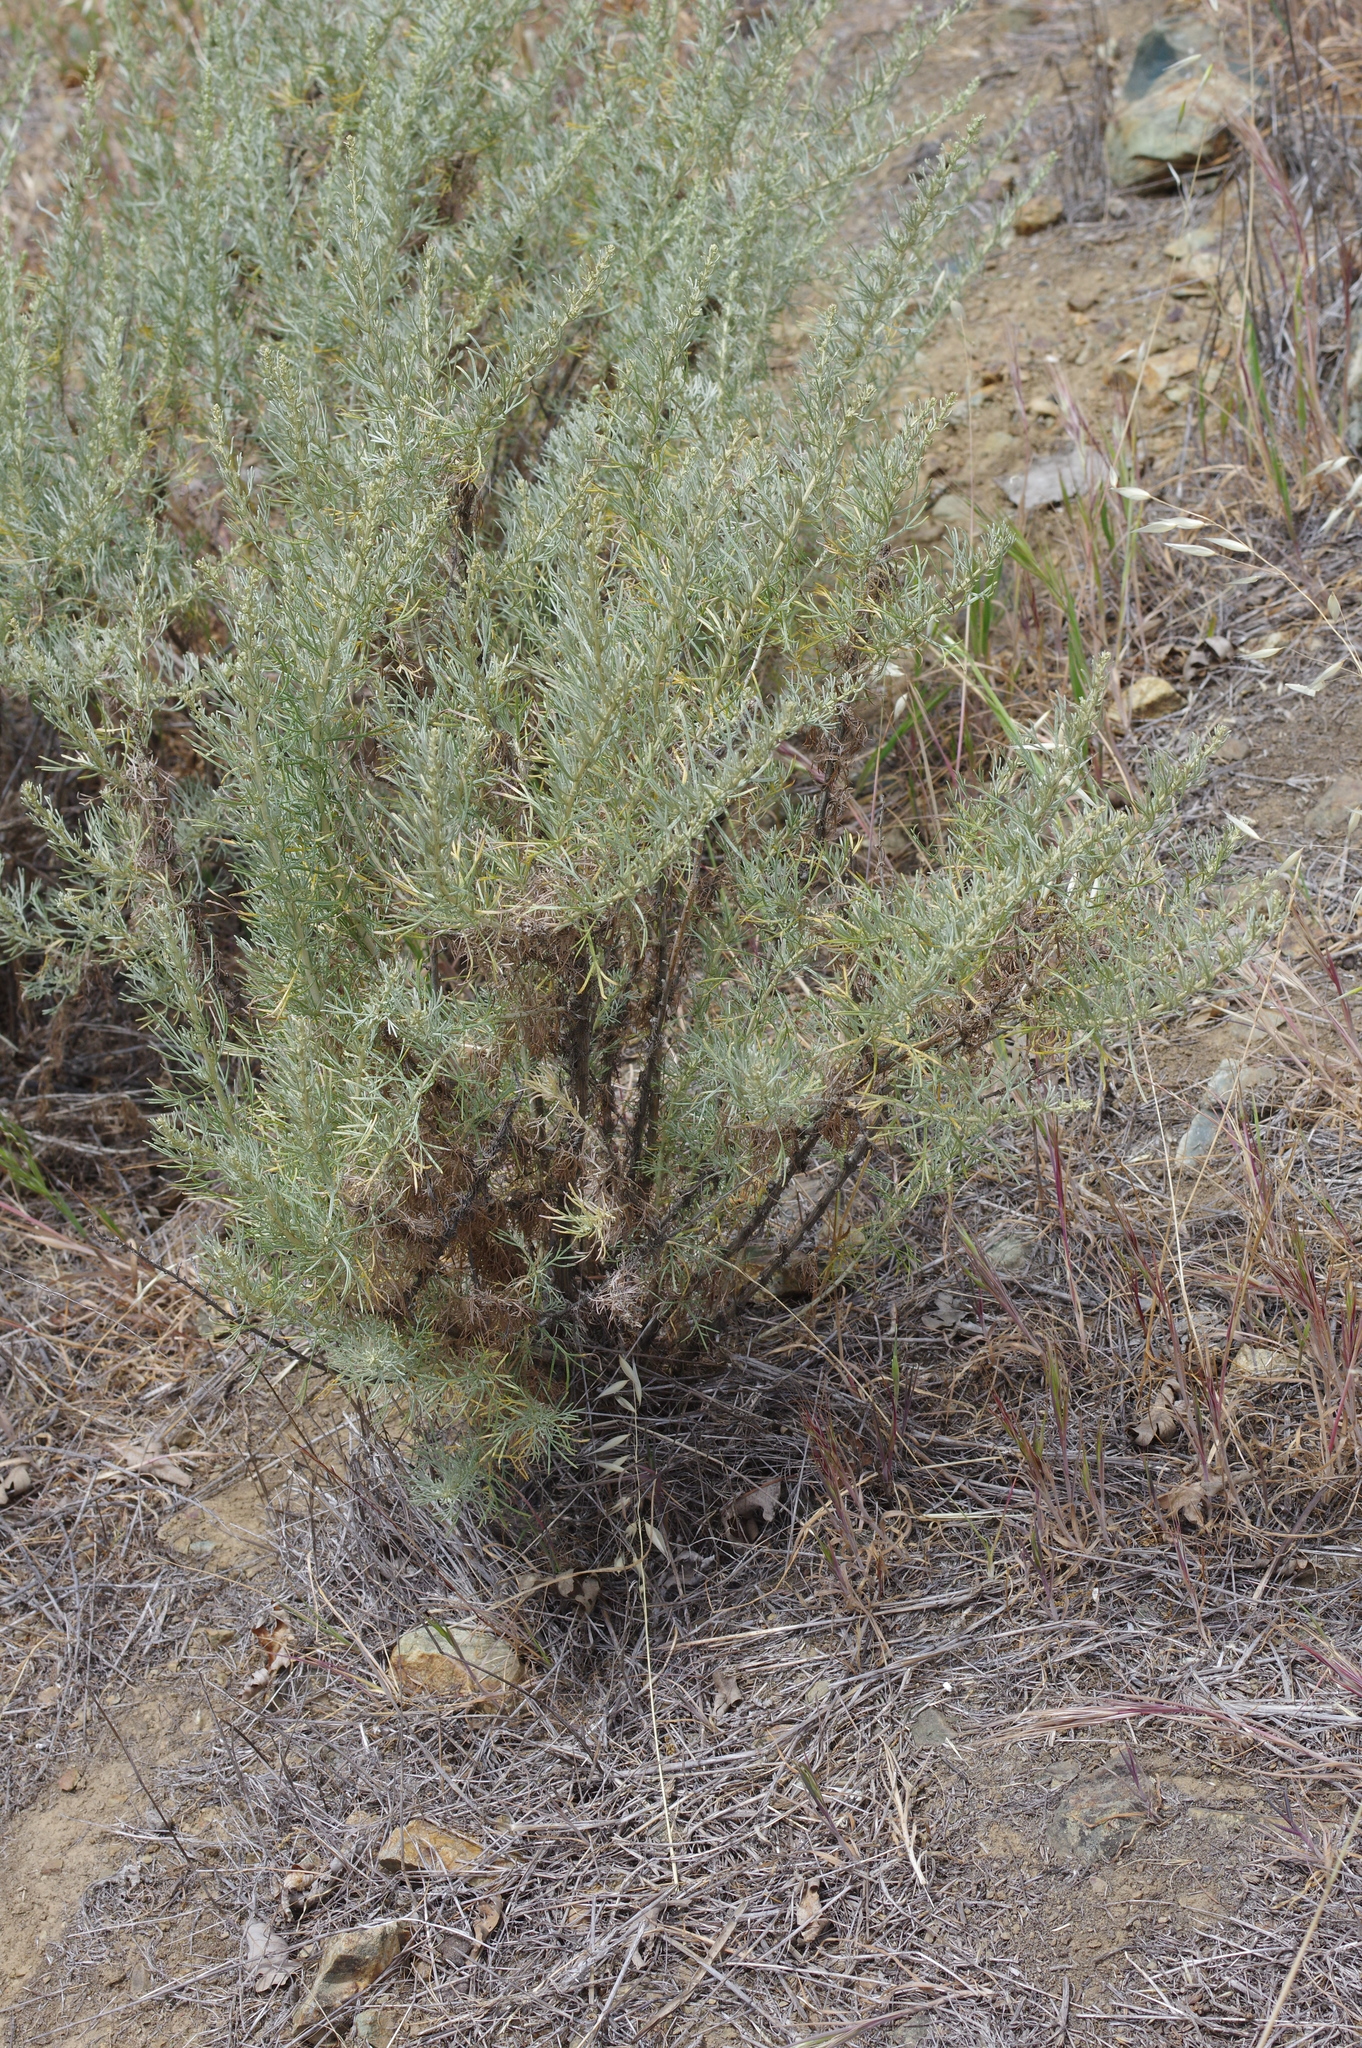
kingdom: Plantae
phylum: Tracheophyta
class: Magnoliopsida
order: Asterales
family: Asteraceae
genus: Artemisia
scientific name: Artemisia californica
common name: California sagebrush
